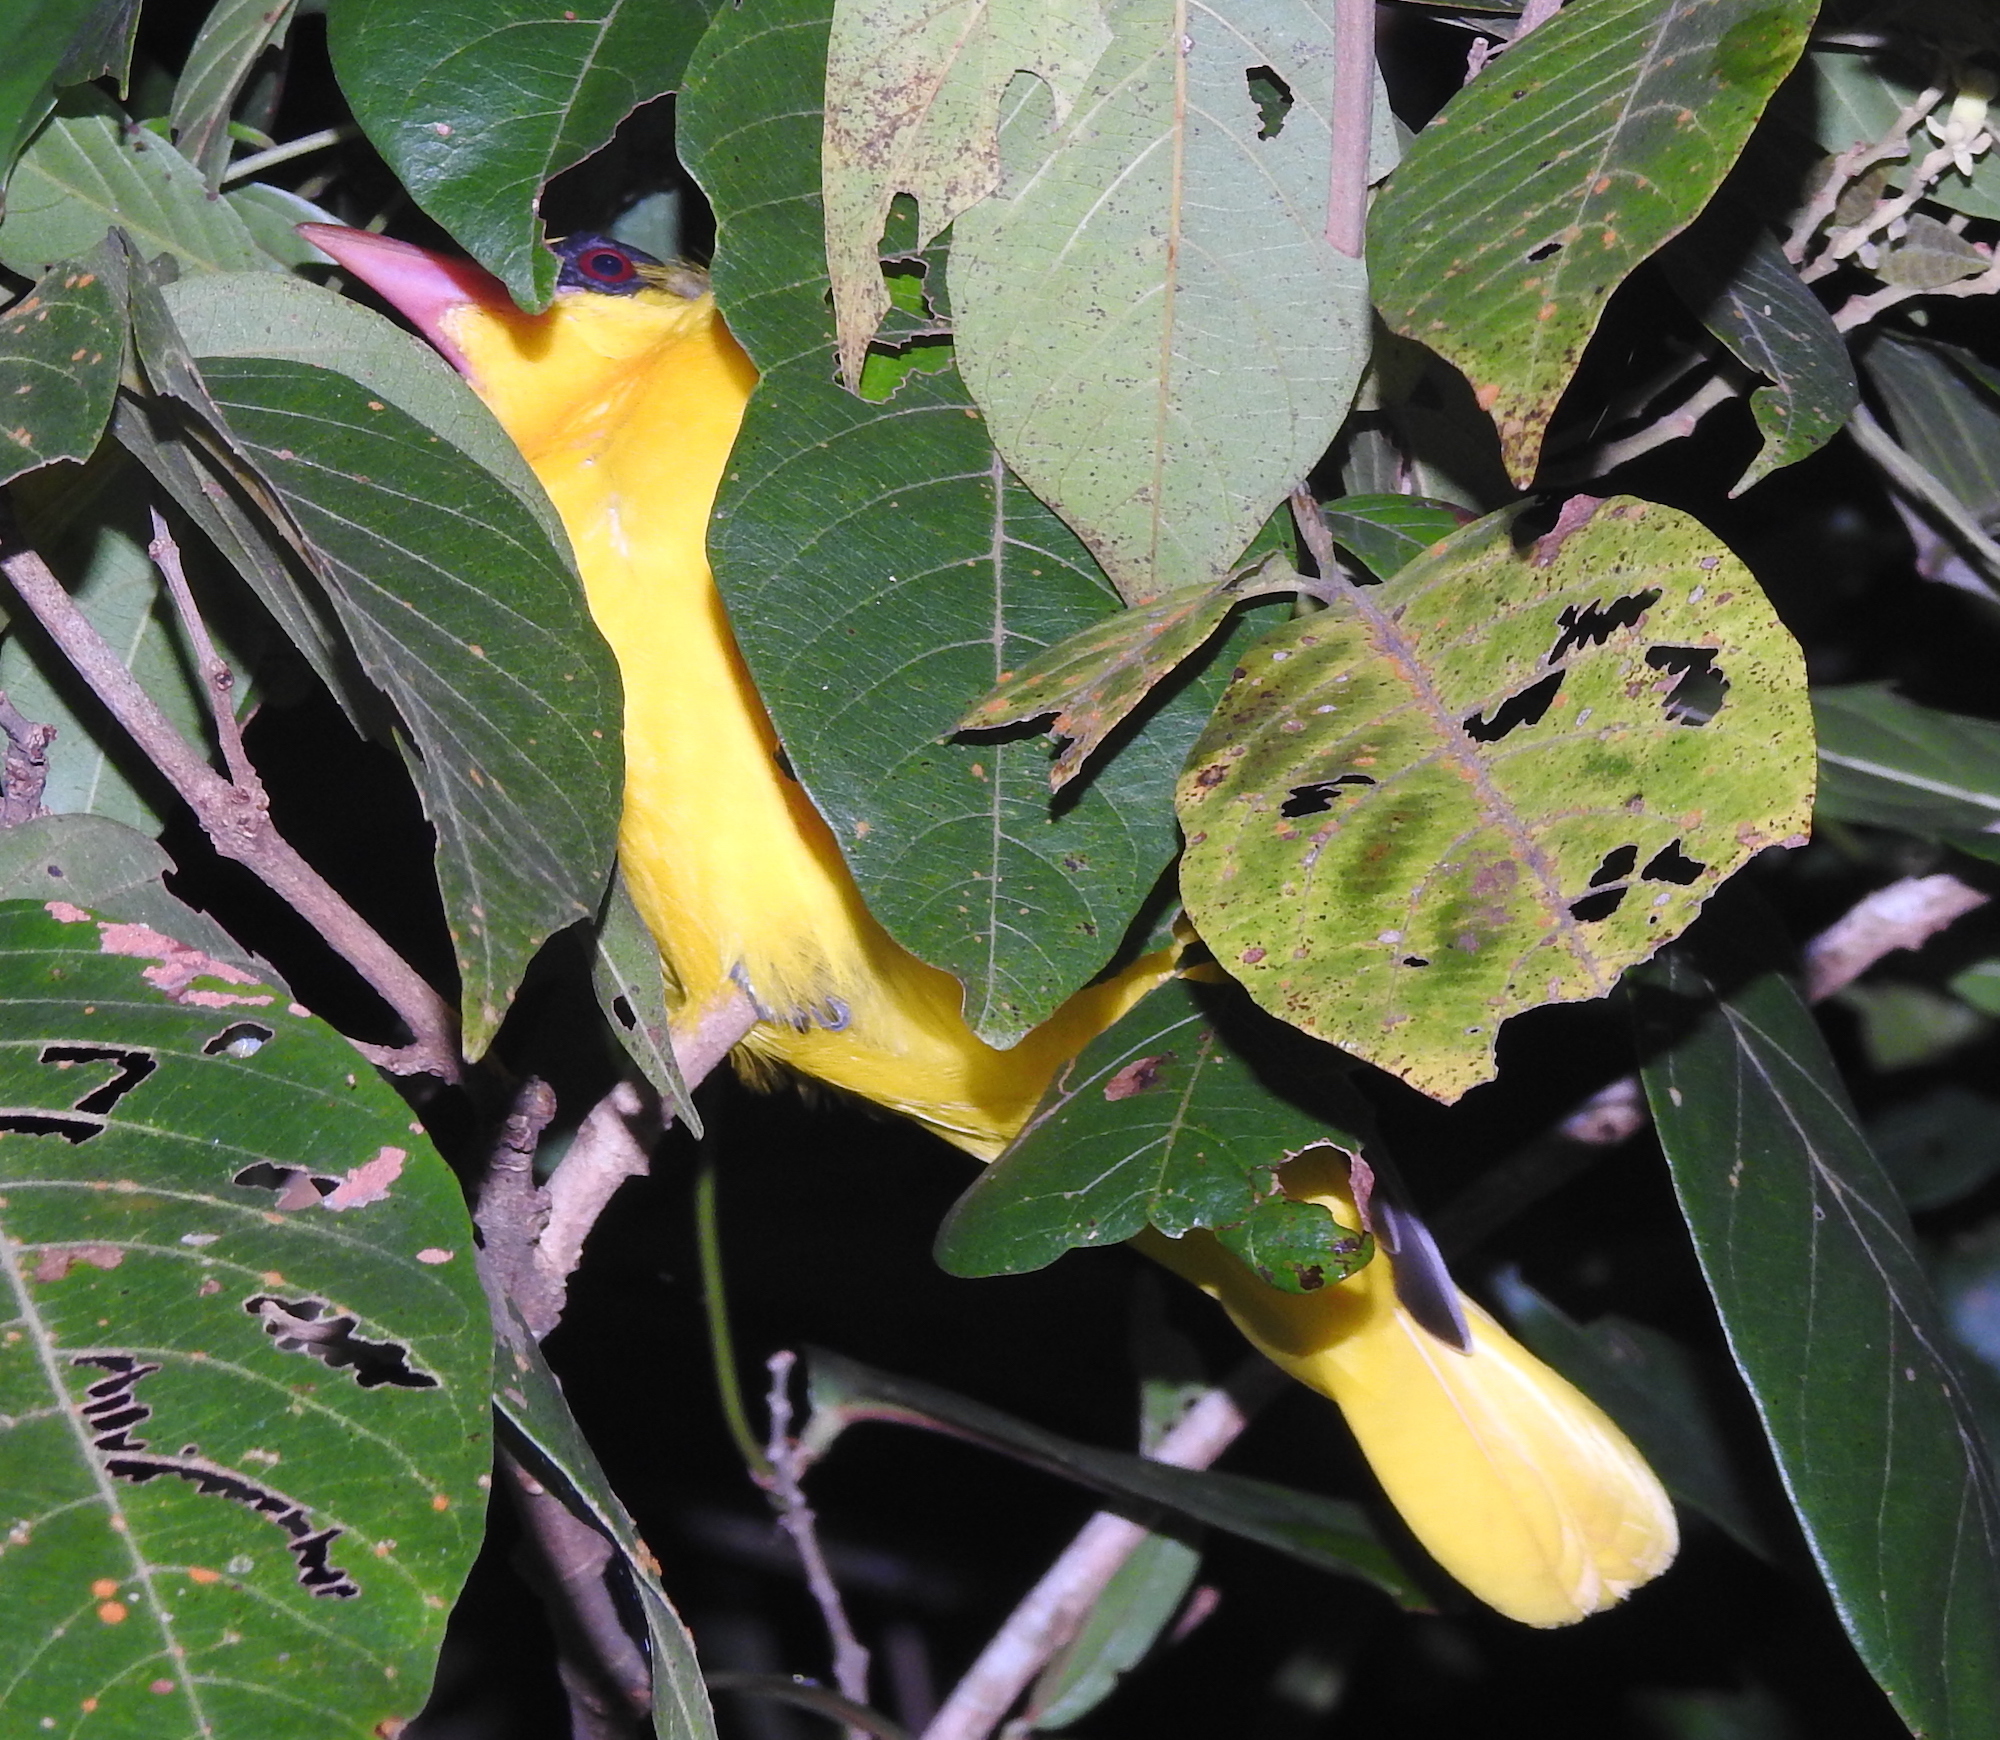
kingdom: Animalia
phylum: Chordata
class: Aves
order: Passeriformes
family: Oriolidae
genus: Oriolus
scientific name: Oriolus chinensis
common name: Black-naped oriole
